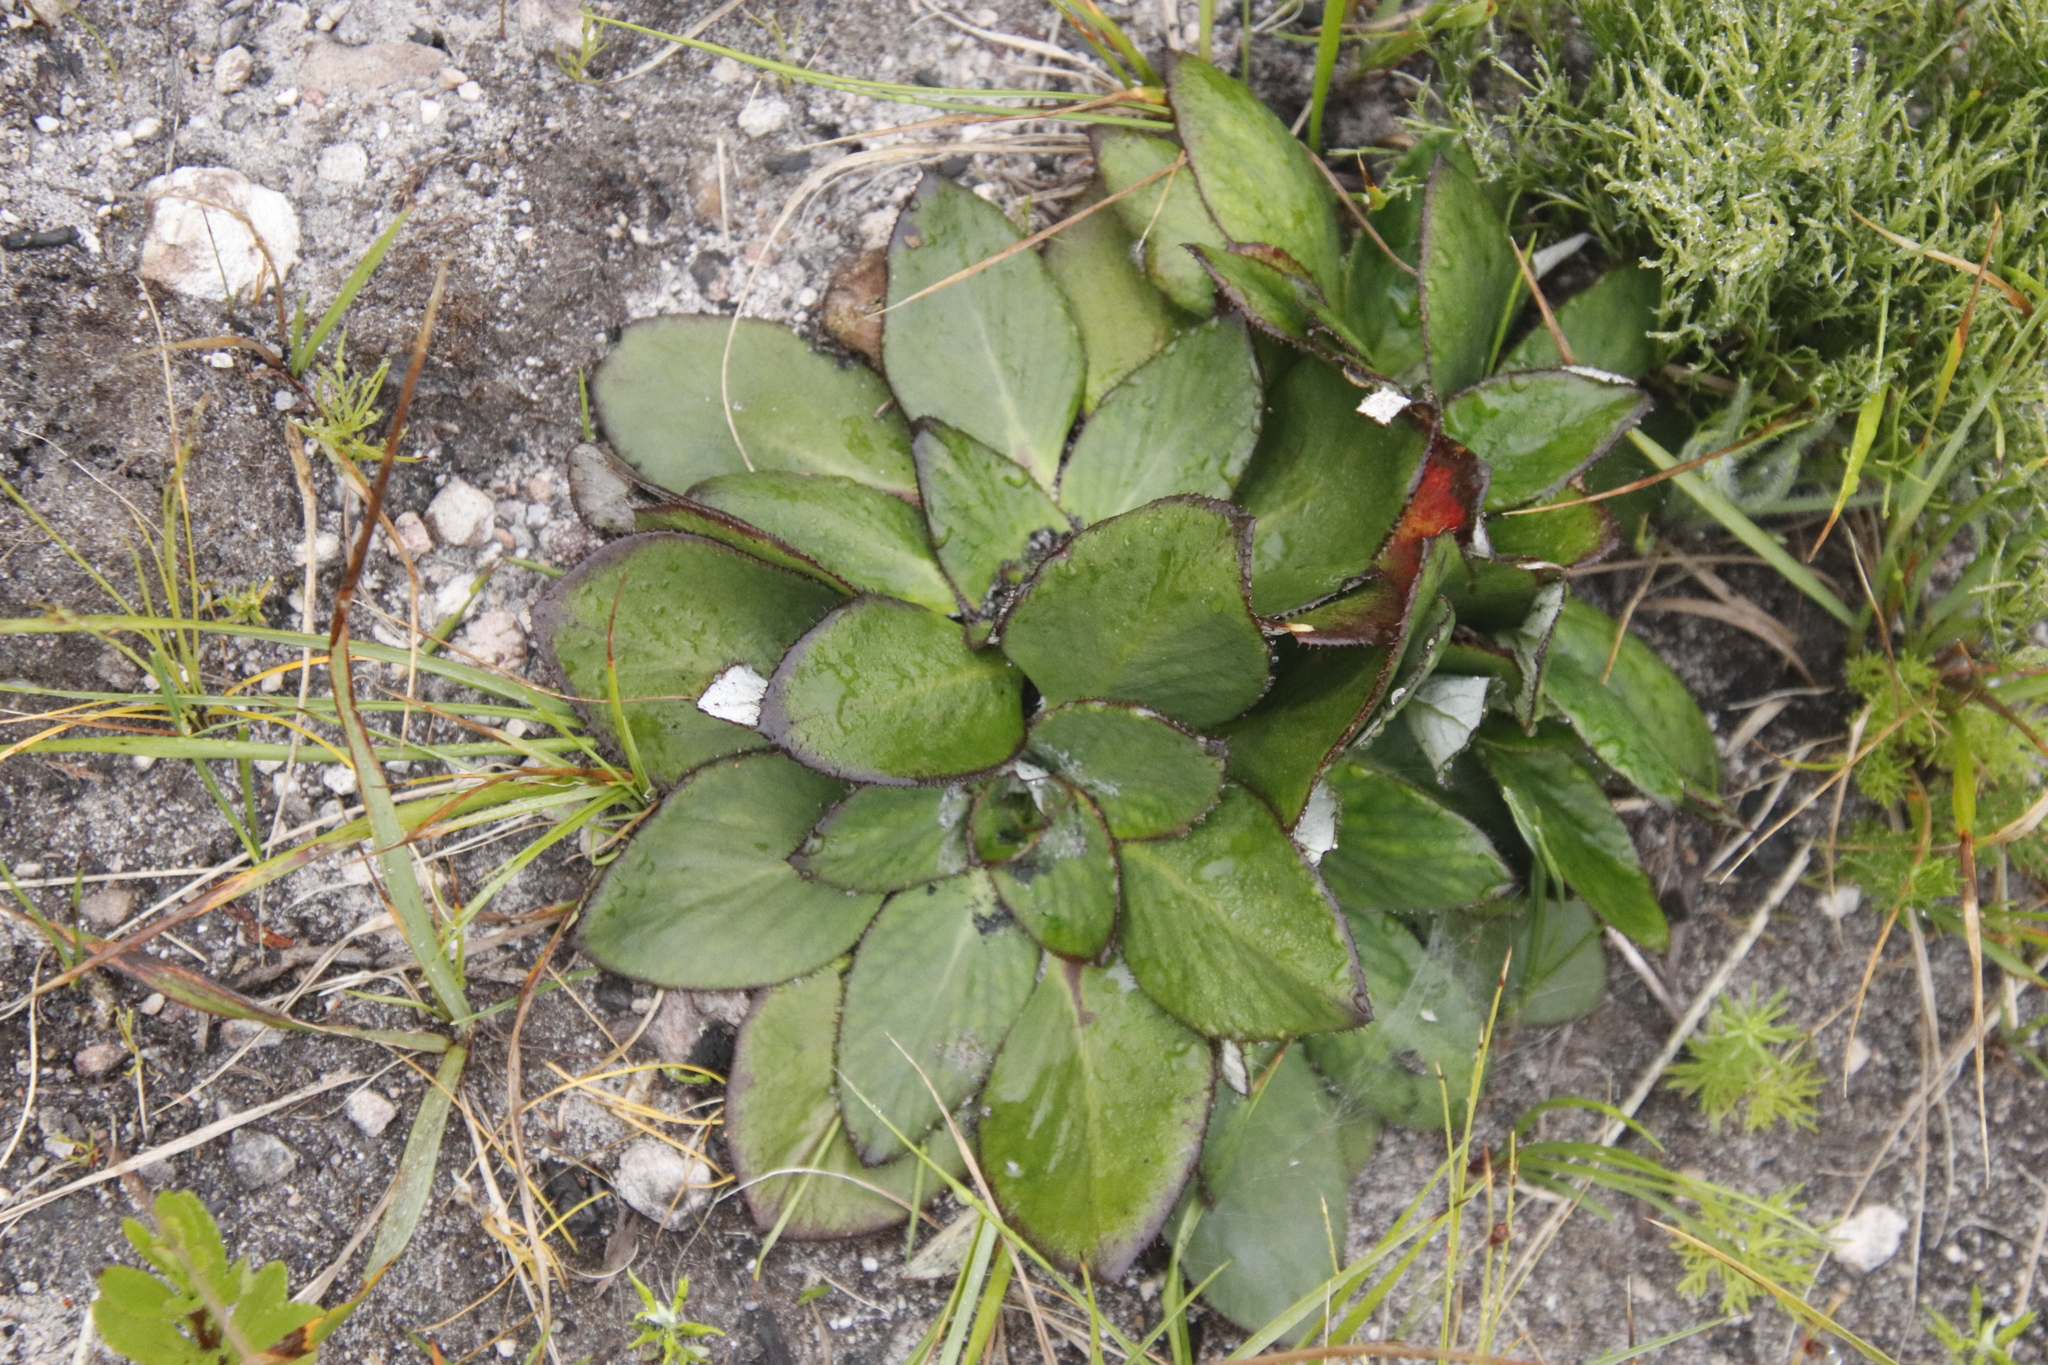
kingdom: Plantae
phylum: Tracheophyta
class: Magnoliopsida
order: Apiales
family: Apiaceae
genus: Hermas
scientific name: Hermas ciliata
